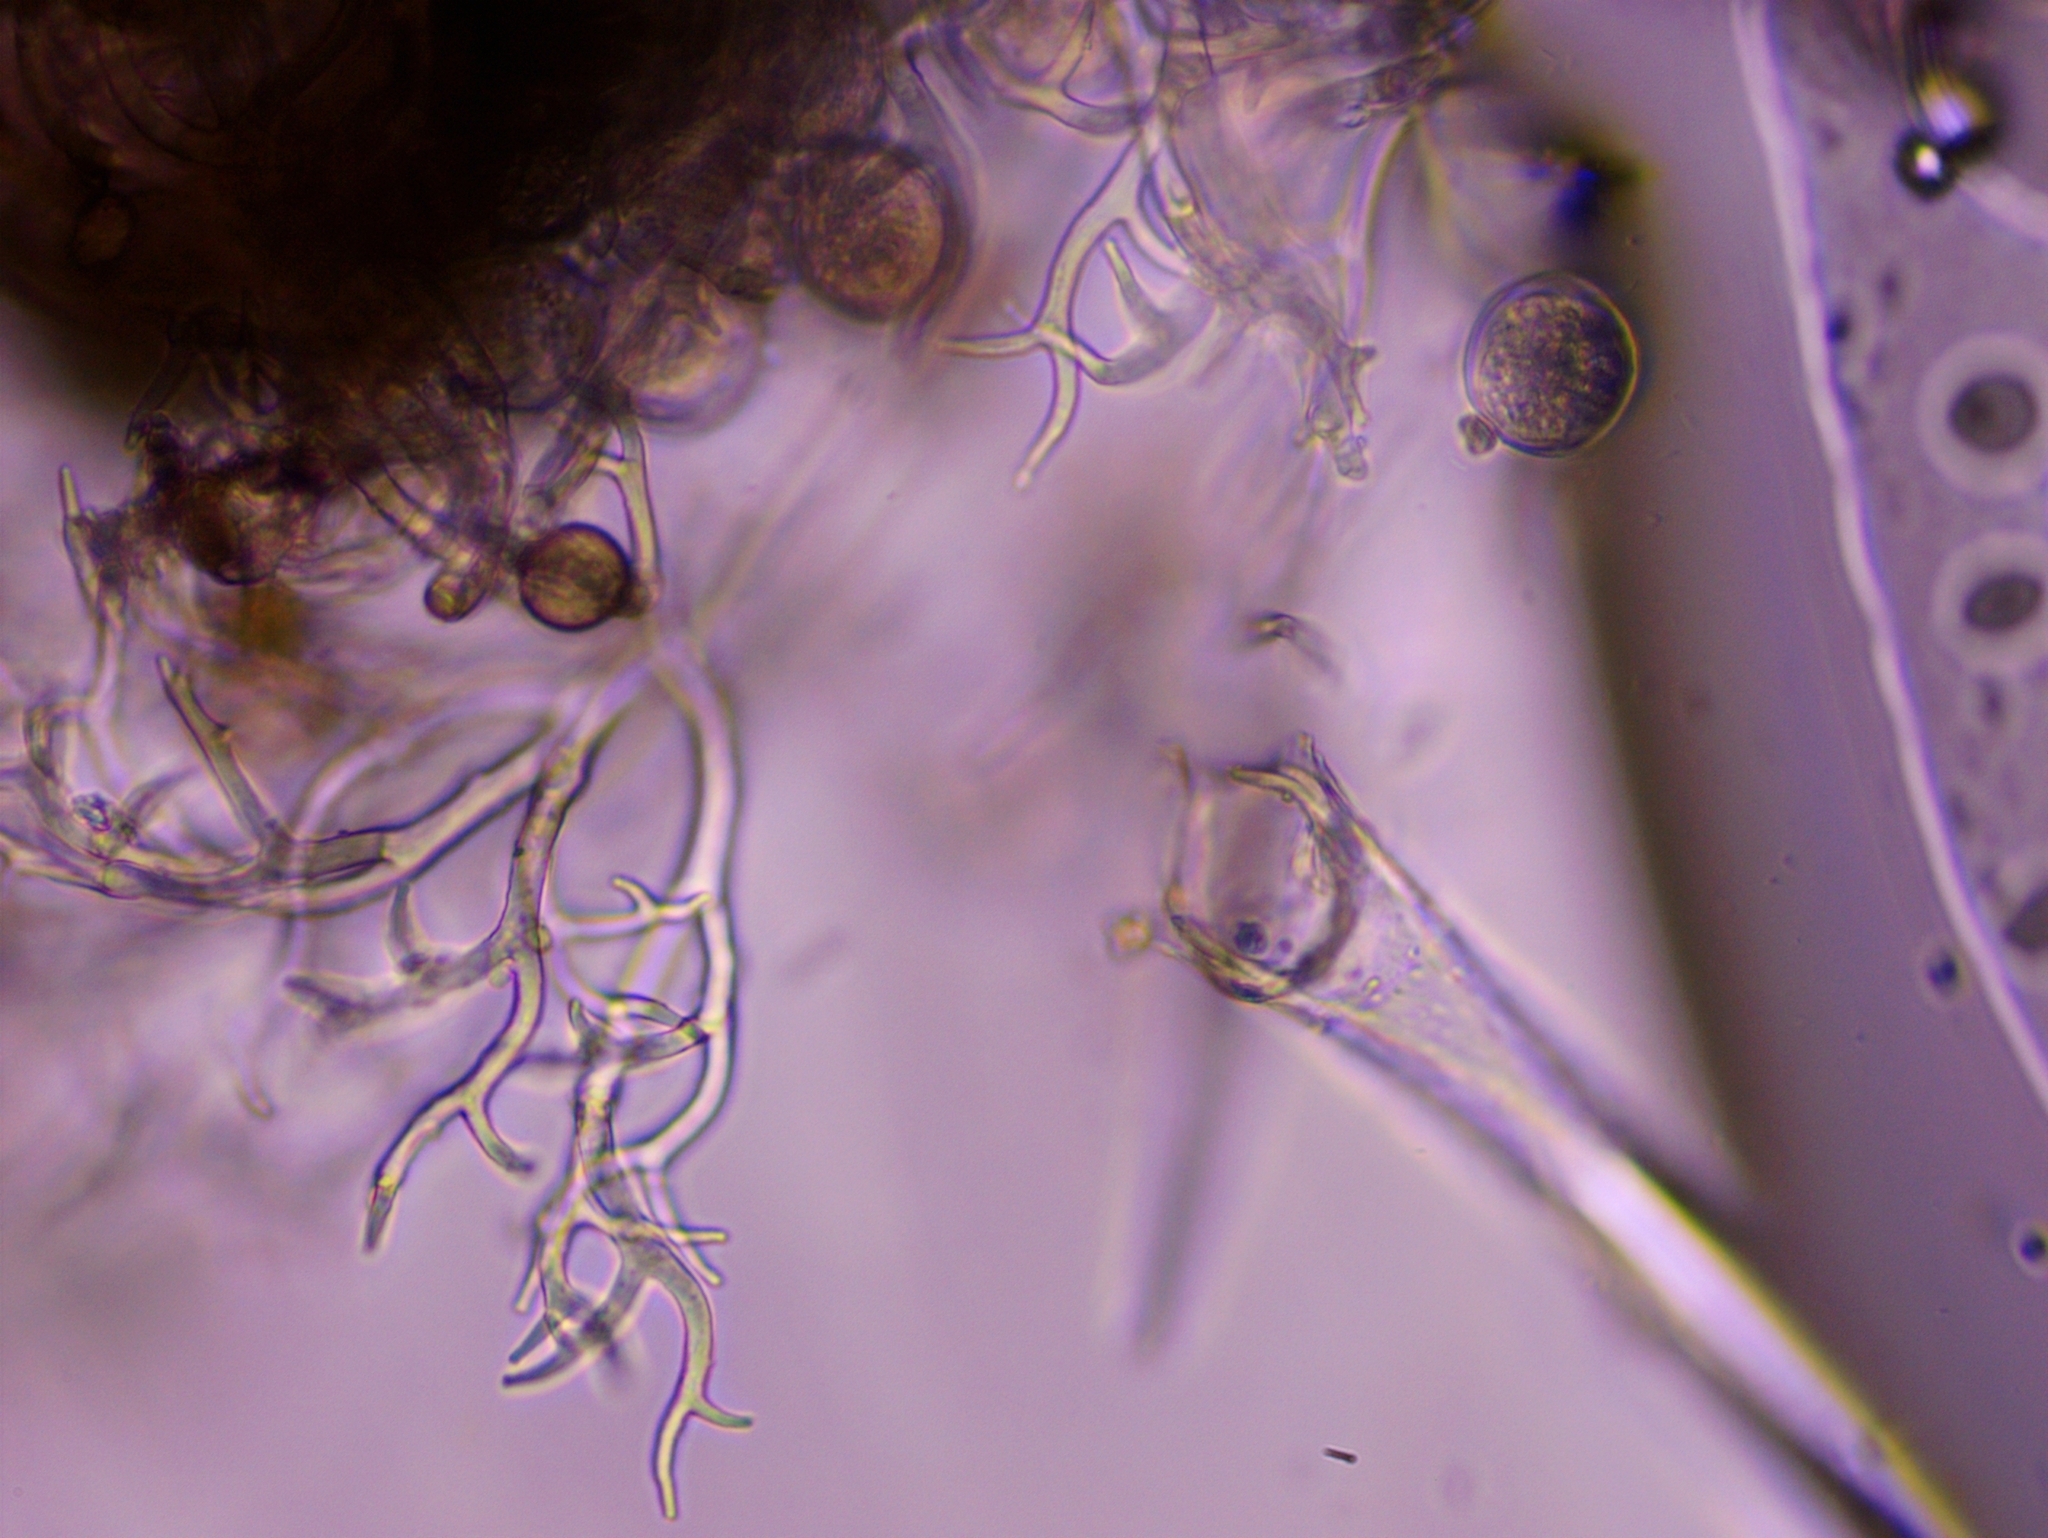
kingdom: Chromista
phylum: Oomycota
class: Peronosporea
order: Peronosporales
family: Peronosporaceae
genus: Peronospora
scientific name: Peronospora conglomerata
